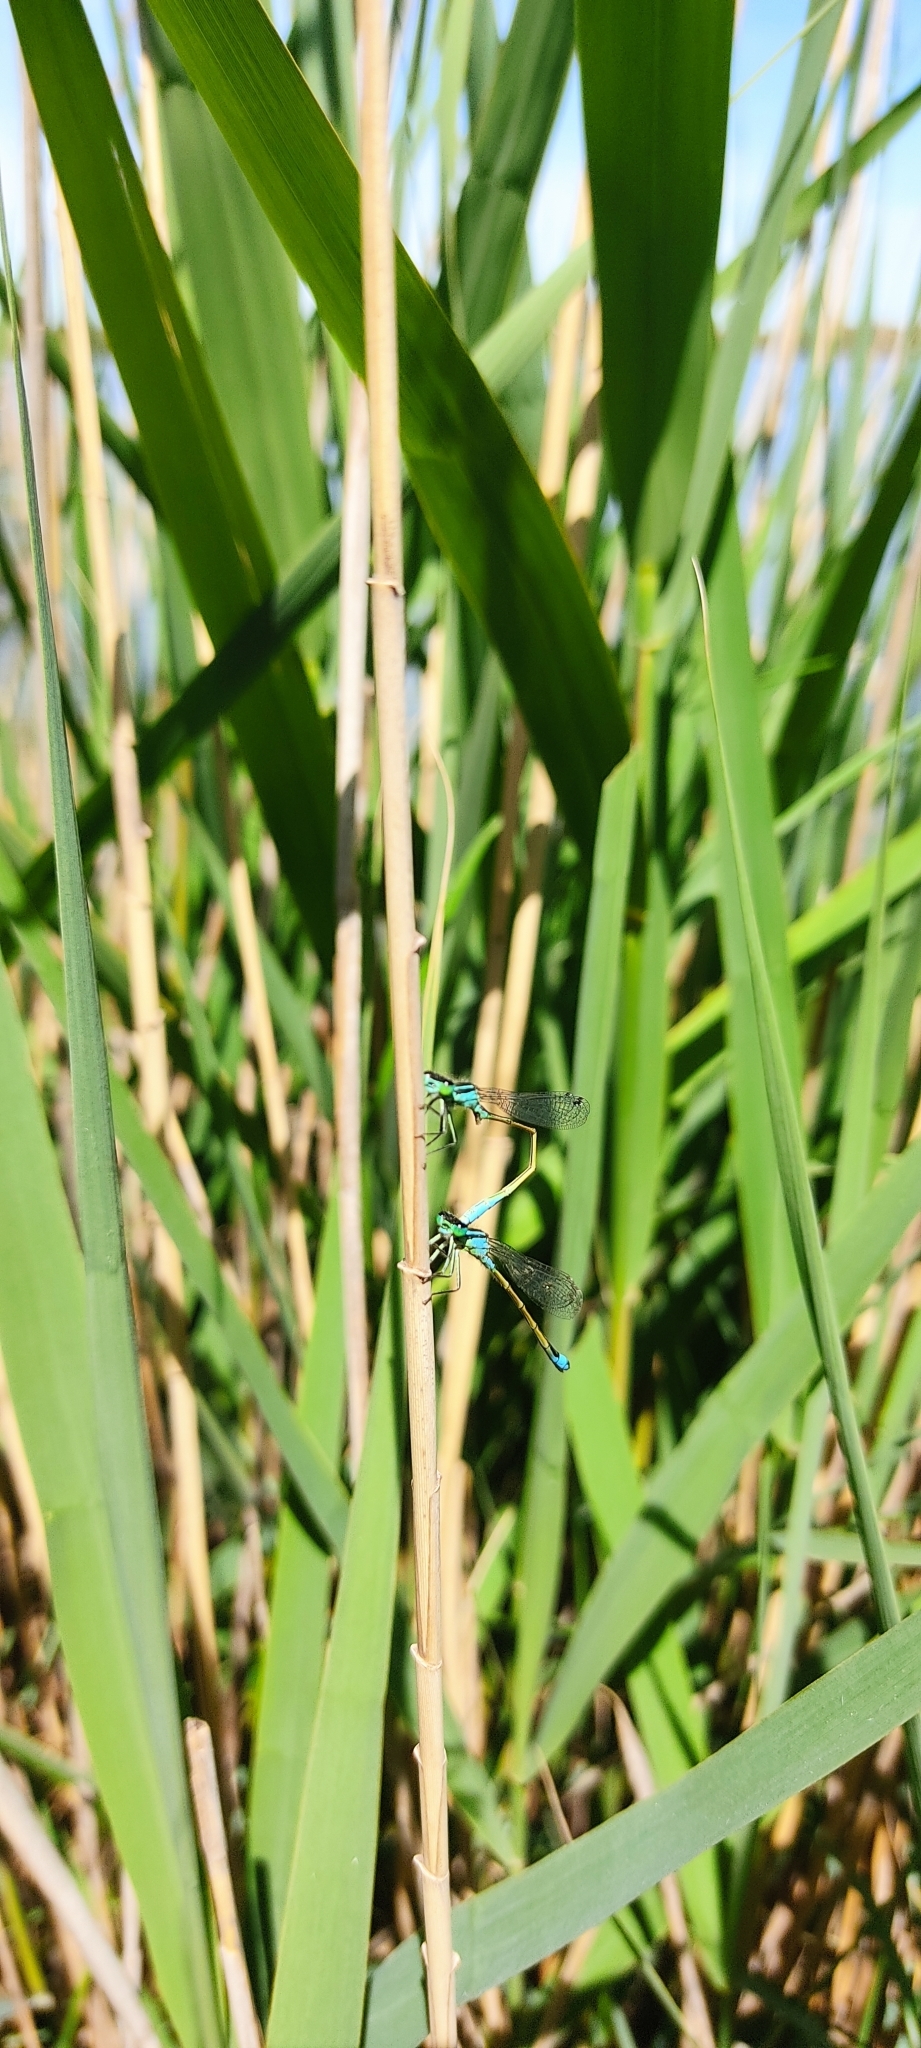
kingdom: Animalia
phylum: Arthropoda
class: Insecta
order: Odonata
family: Coenagrionidae
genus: Ischnura
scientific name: Ischnura elegans
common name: Blue-tailed damselfly
